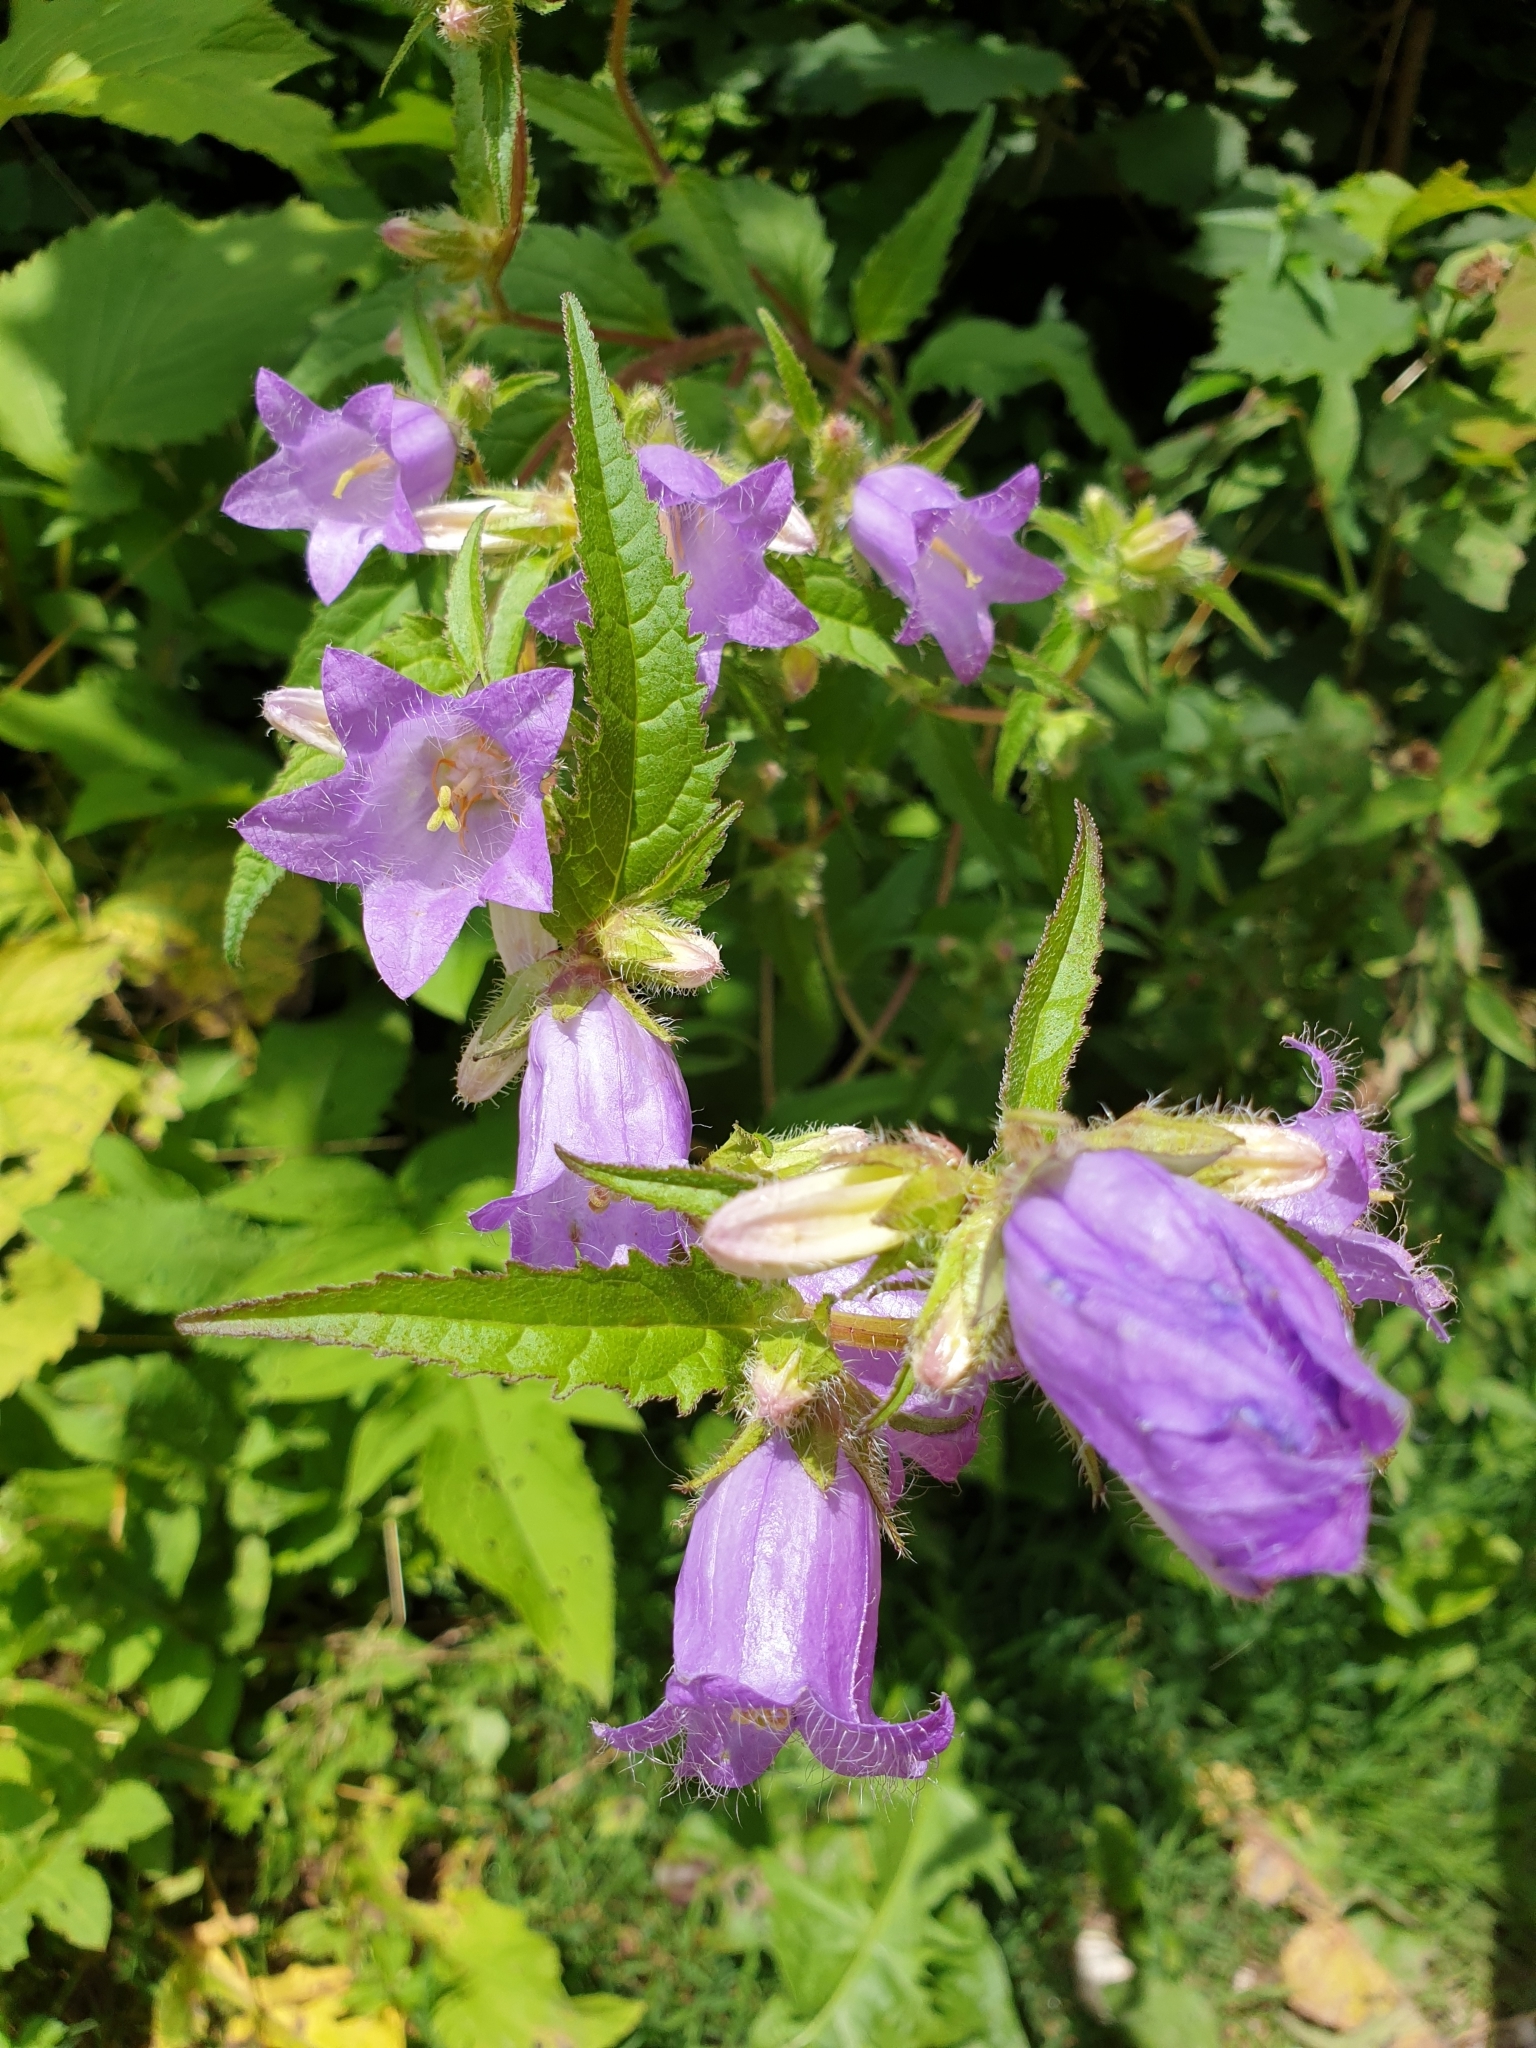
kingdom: Plantae
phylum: Tracheophyta
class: Magnoliopsida
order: Asterales
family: Campanulaceae
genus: Campanula
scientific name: Campanula trachelium
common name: Nettle-leaved bellflower
